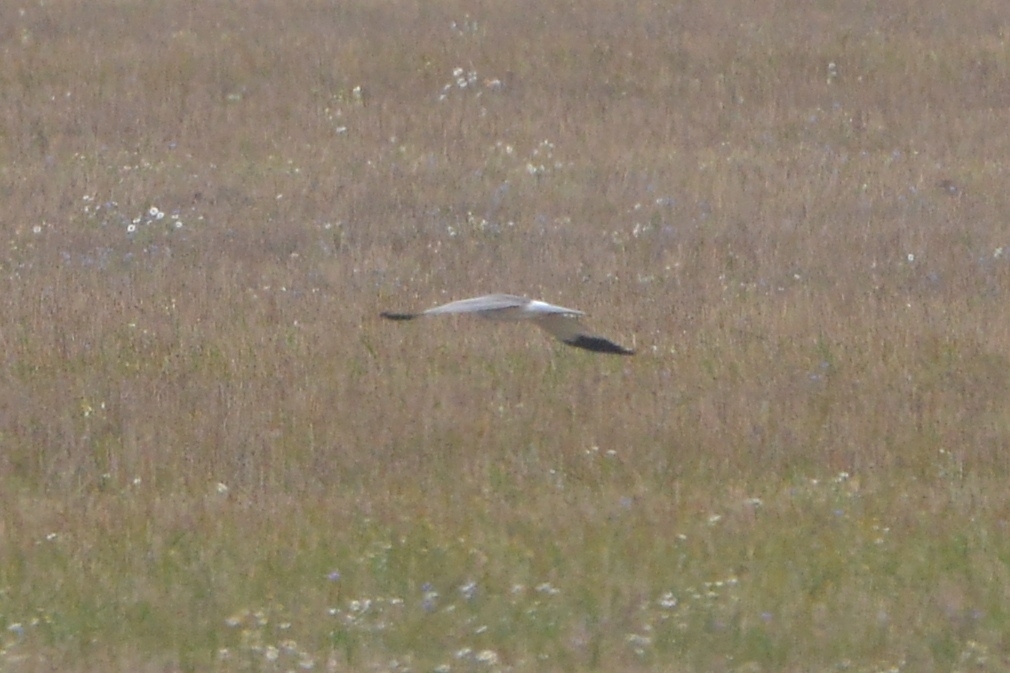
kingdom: Animalia
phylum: Chordata
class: Aves
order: Accipitriformes
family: Accipitridae
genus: Circus
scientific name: Circus cyaneus
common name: Hen harrier
